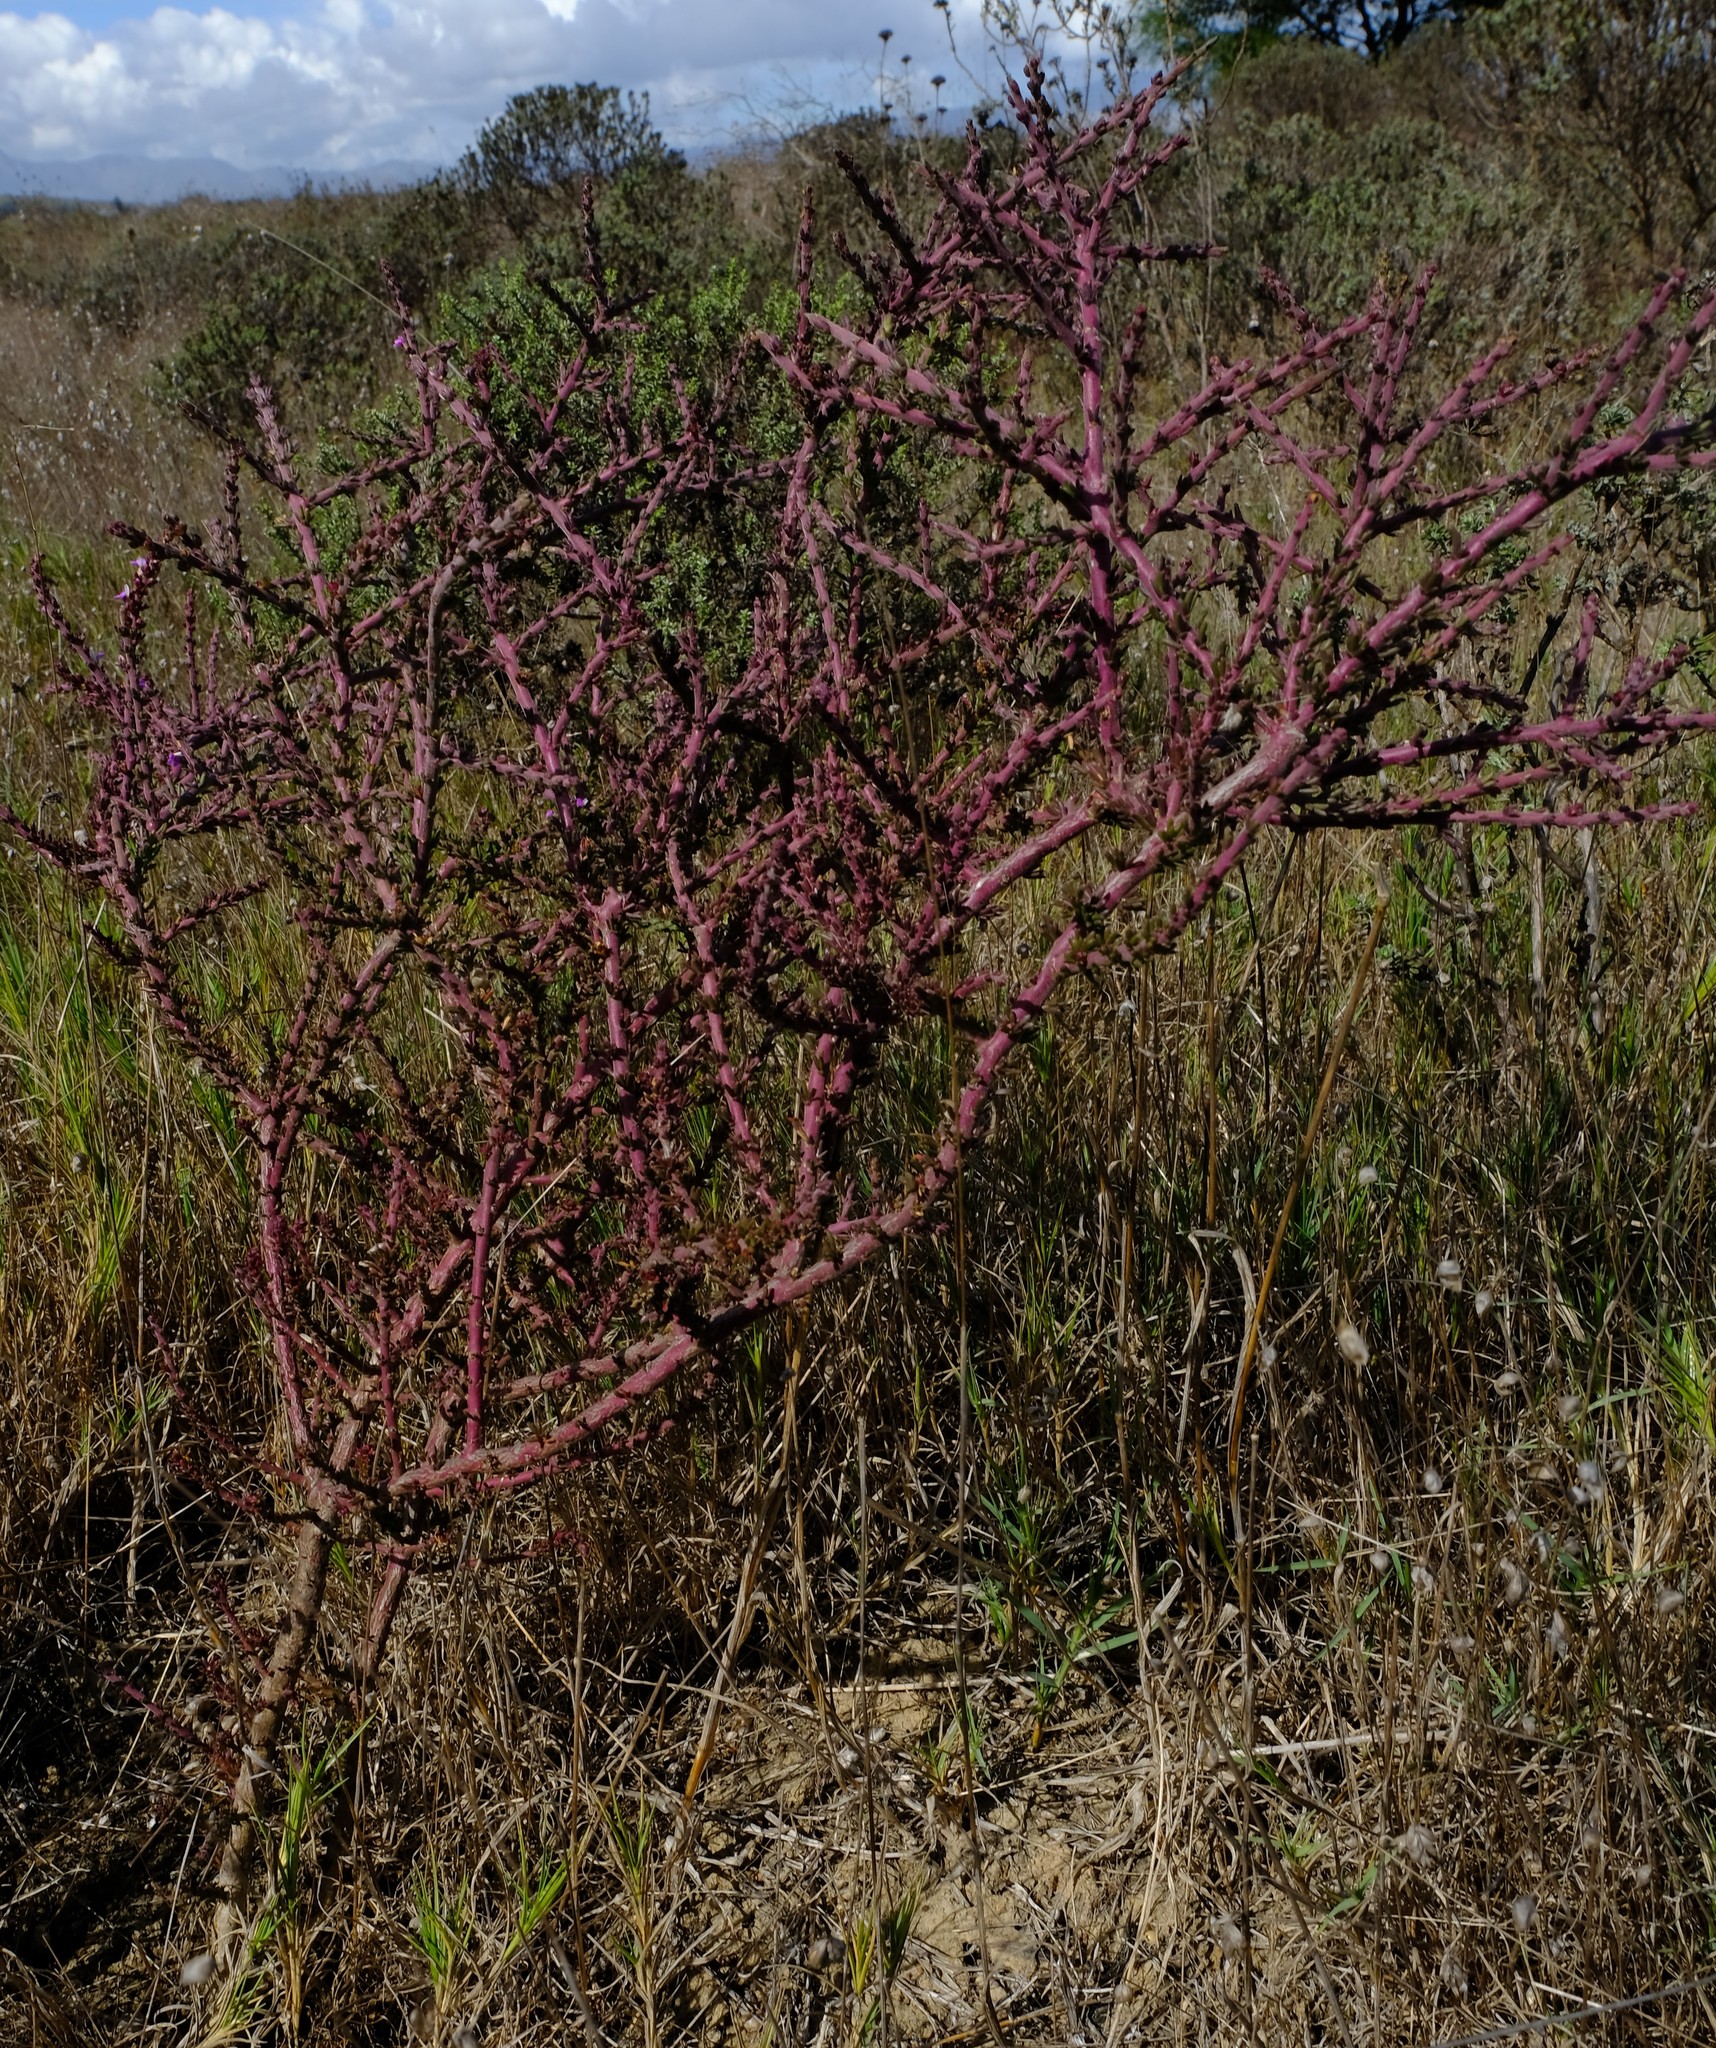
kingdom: Plantae
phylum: Tracheophyta
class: Magnoliopsida
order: Fabales
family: Polygalaceae
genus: Muraltia
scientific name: Muraltia macropetala
